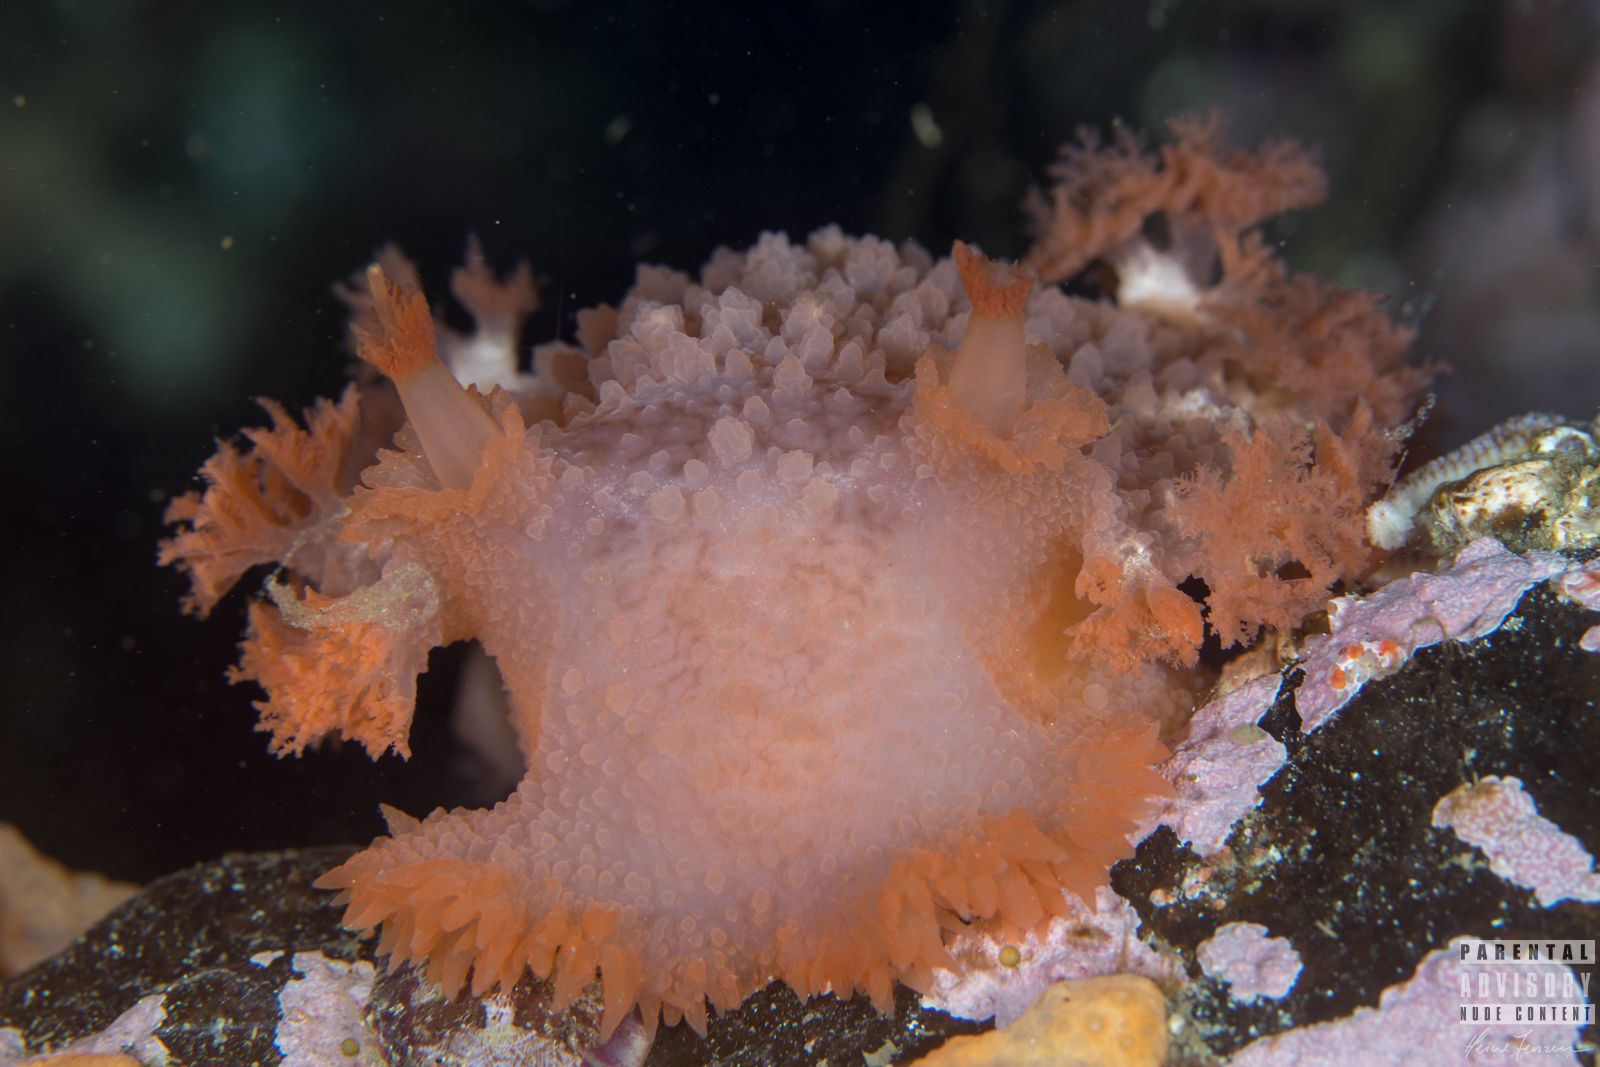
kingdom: Animalia
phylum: Mollusca
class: Gastropoda
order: Nudibranchia
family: Tritoniidae
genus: Tritonia
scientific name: Tritonia hombergii
